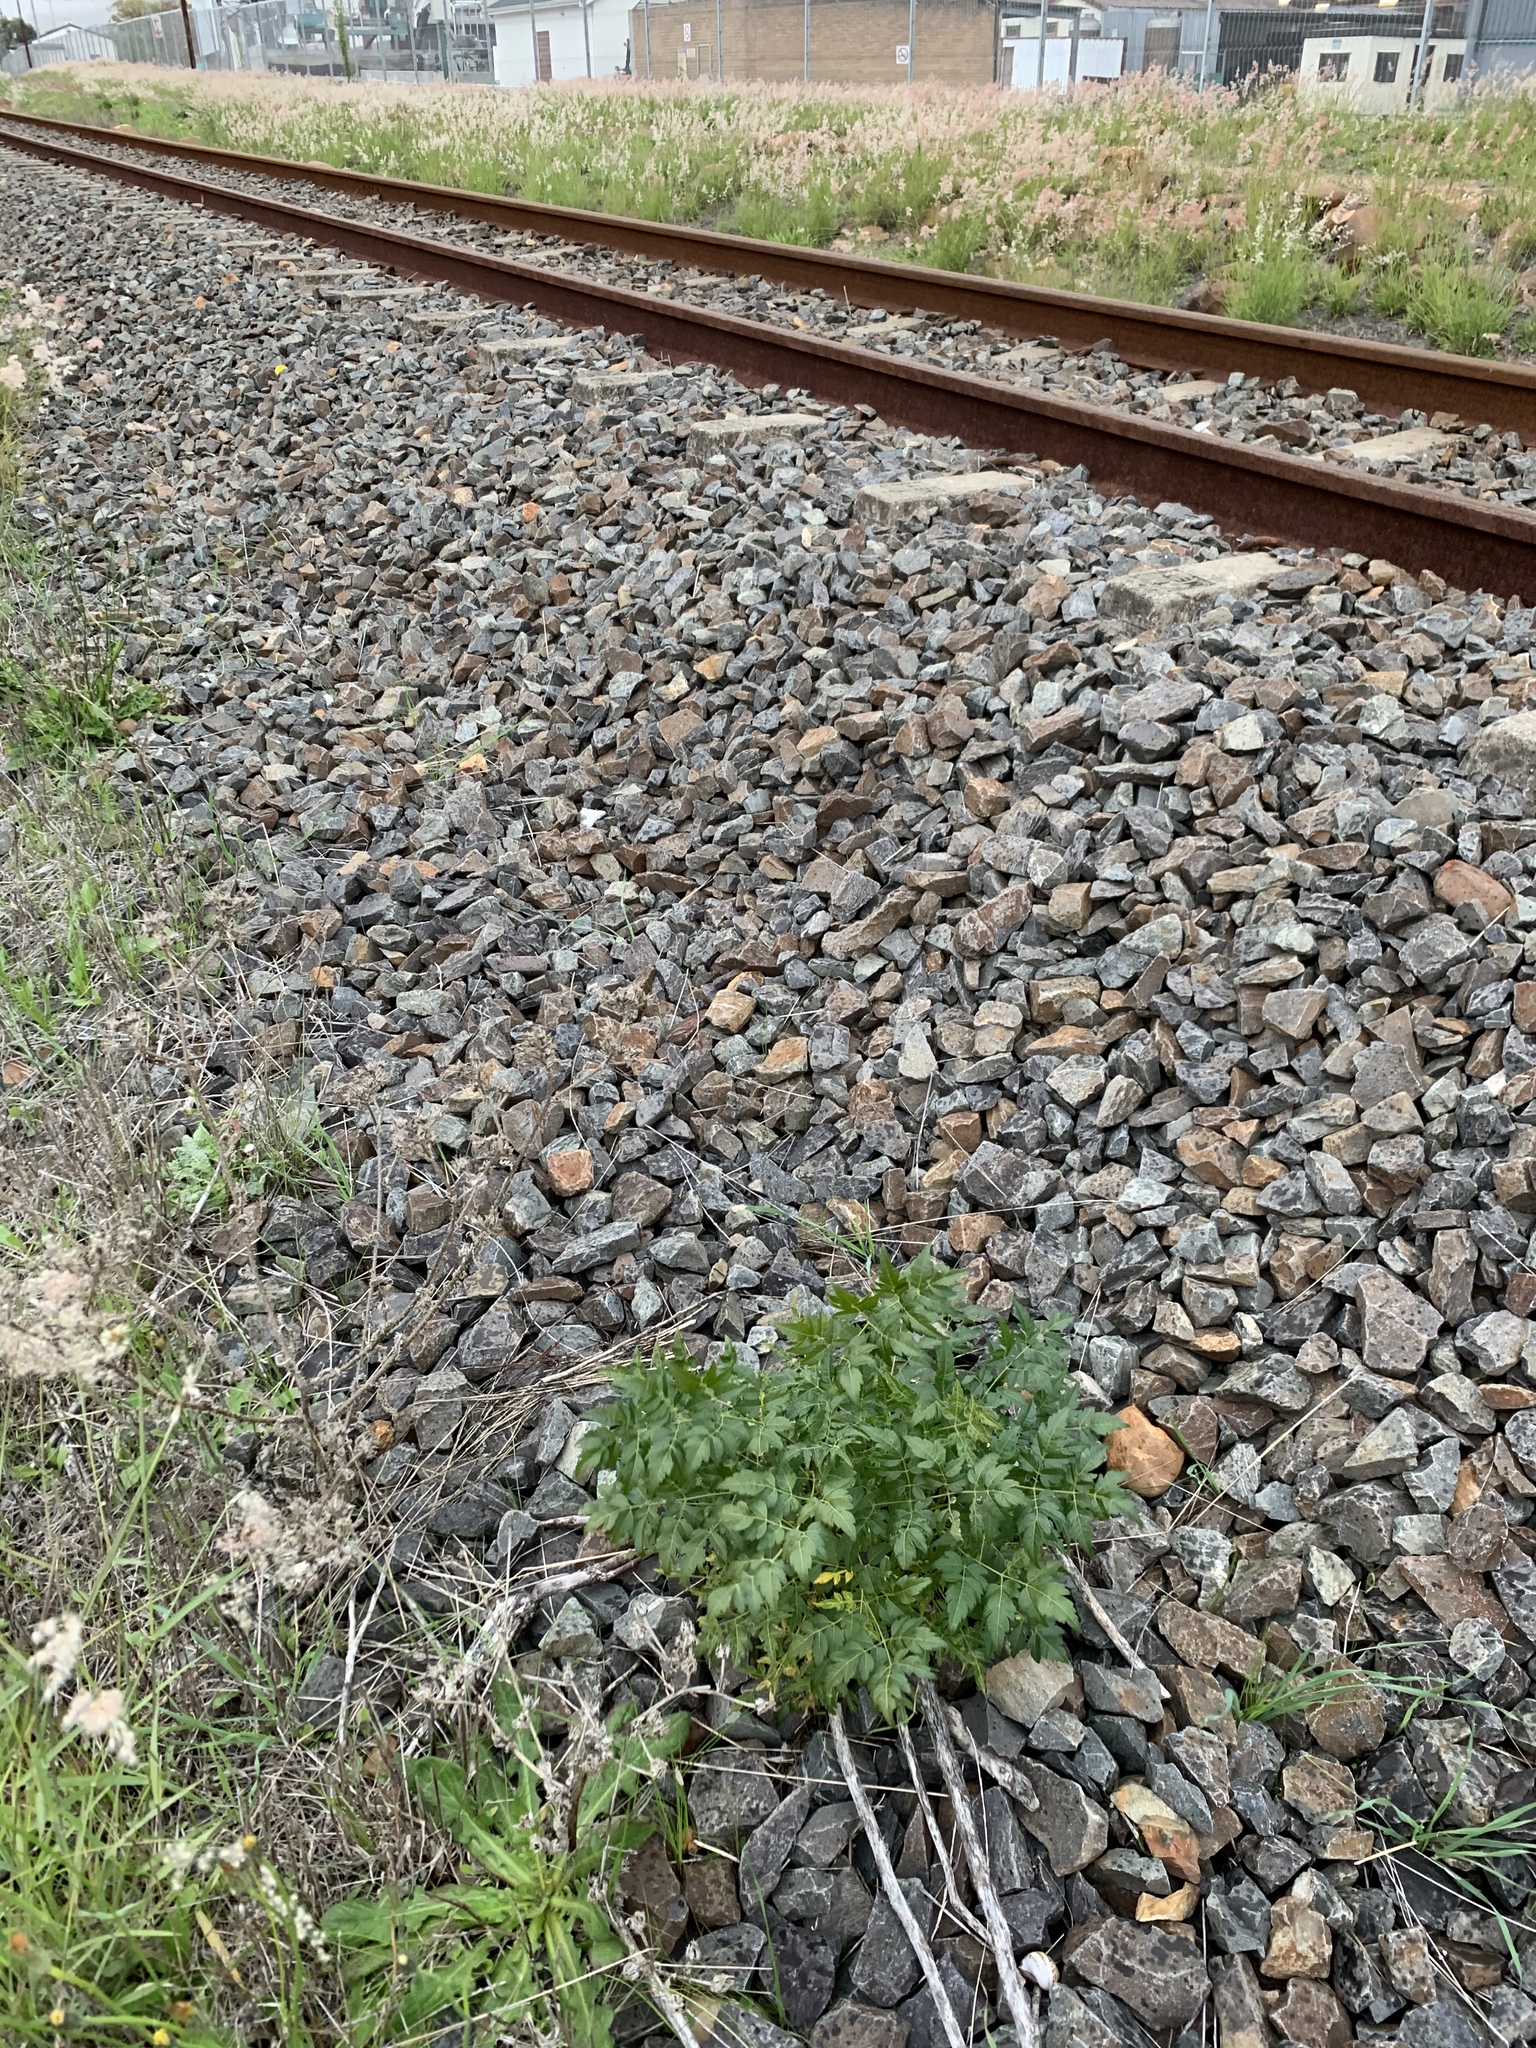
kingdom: Plantae
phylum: Tracheophyta
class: Magnoliopsida
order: Sapindales
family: Meliaceae
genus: Melia
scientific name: Melia azedarach
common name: Chinaberrytree
